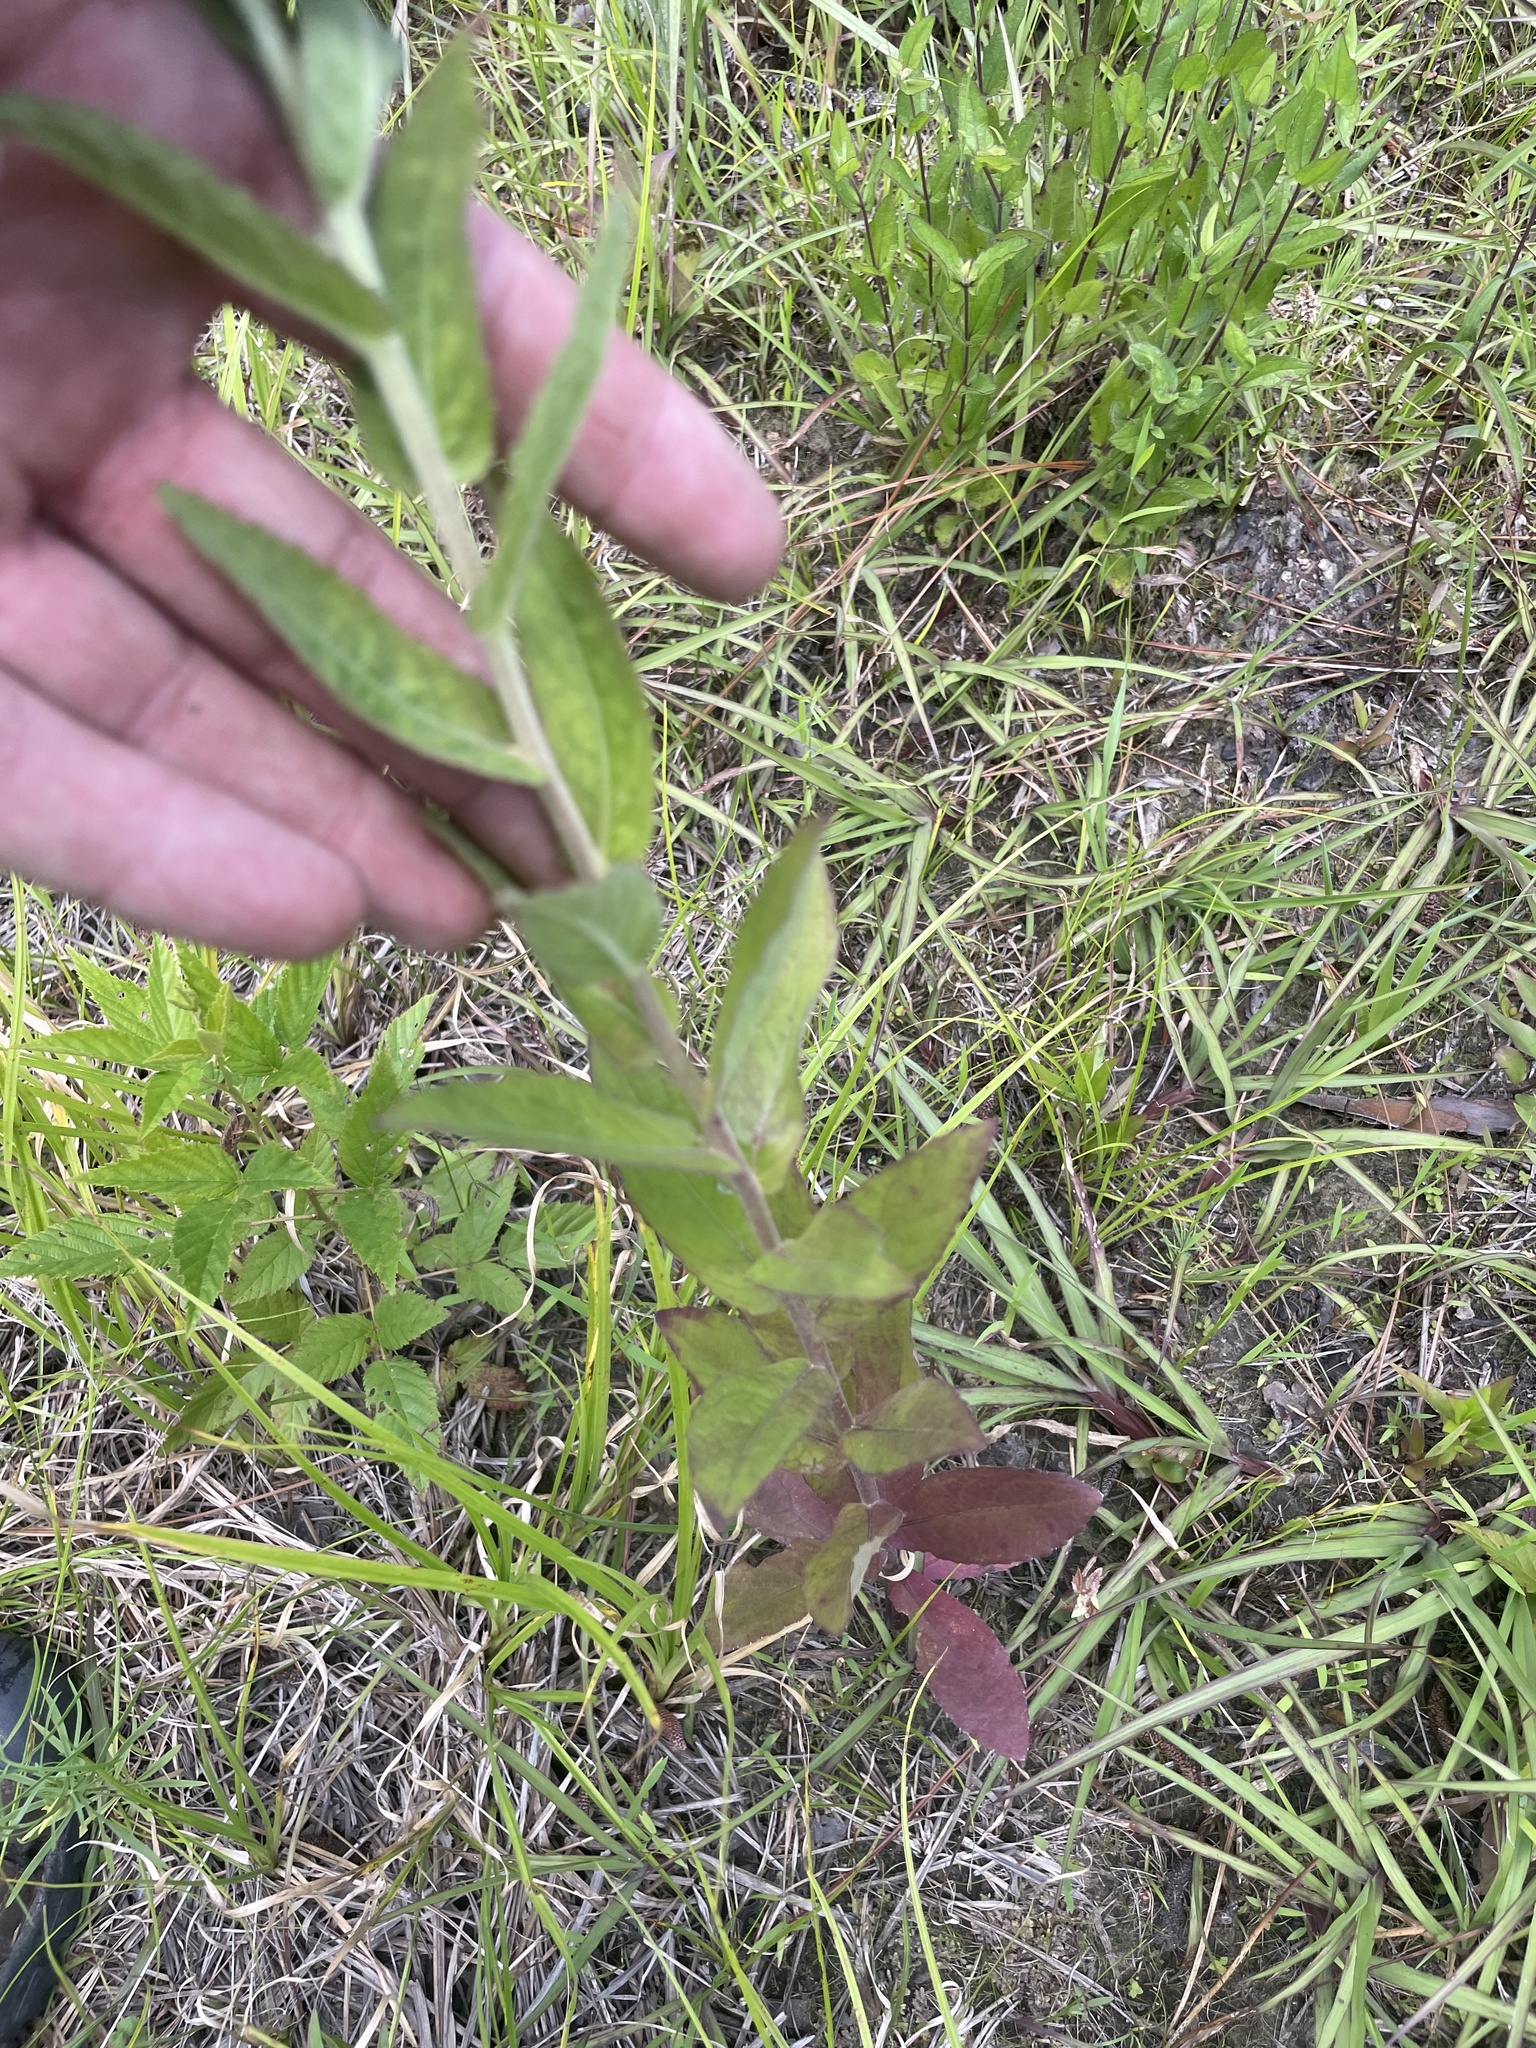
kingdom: Plantae
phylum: Tracheophyta
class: Magnoliopsida
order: Asterales
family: Asteraceae
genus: Pluchea
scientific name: Pluchea foetida
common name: Stinking camphorweed
